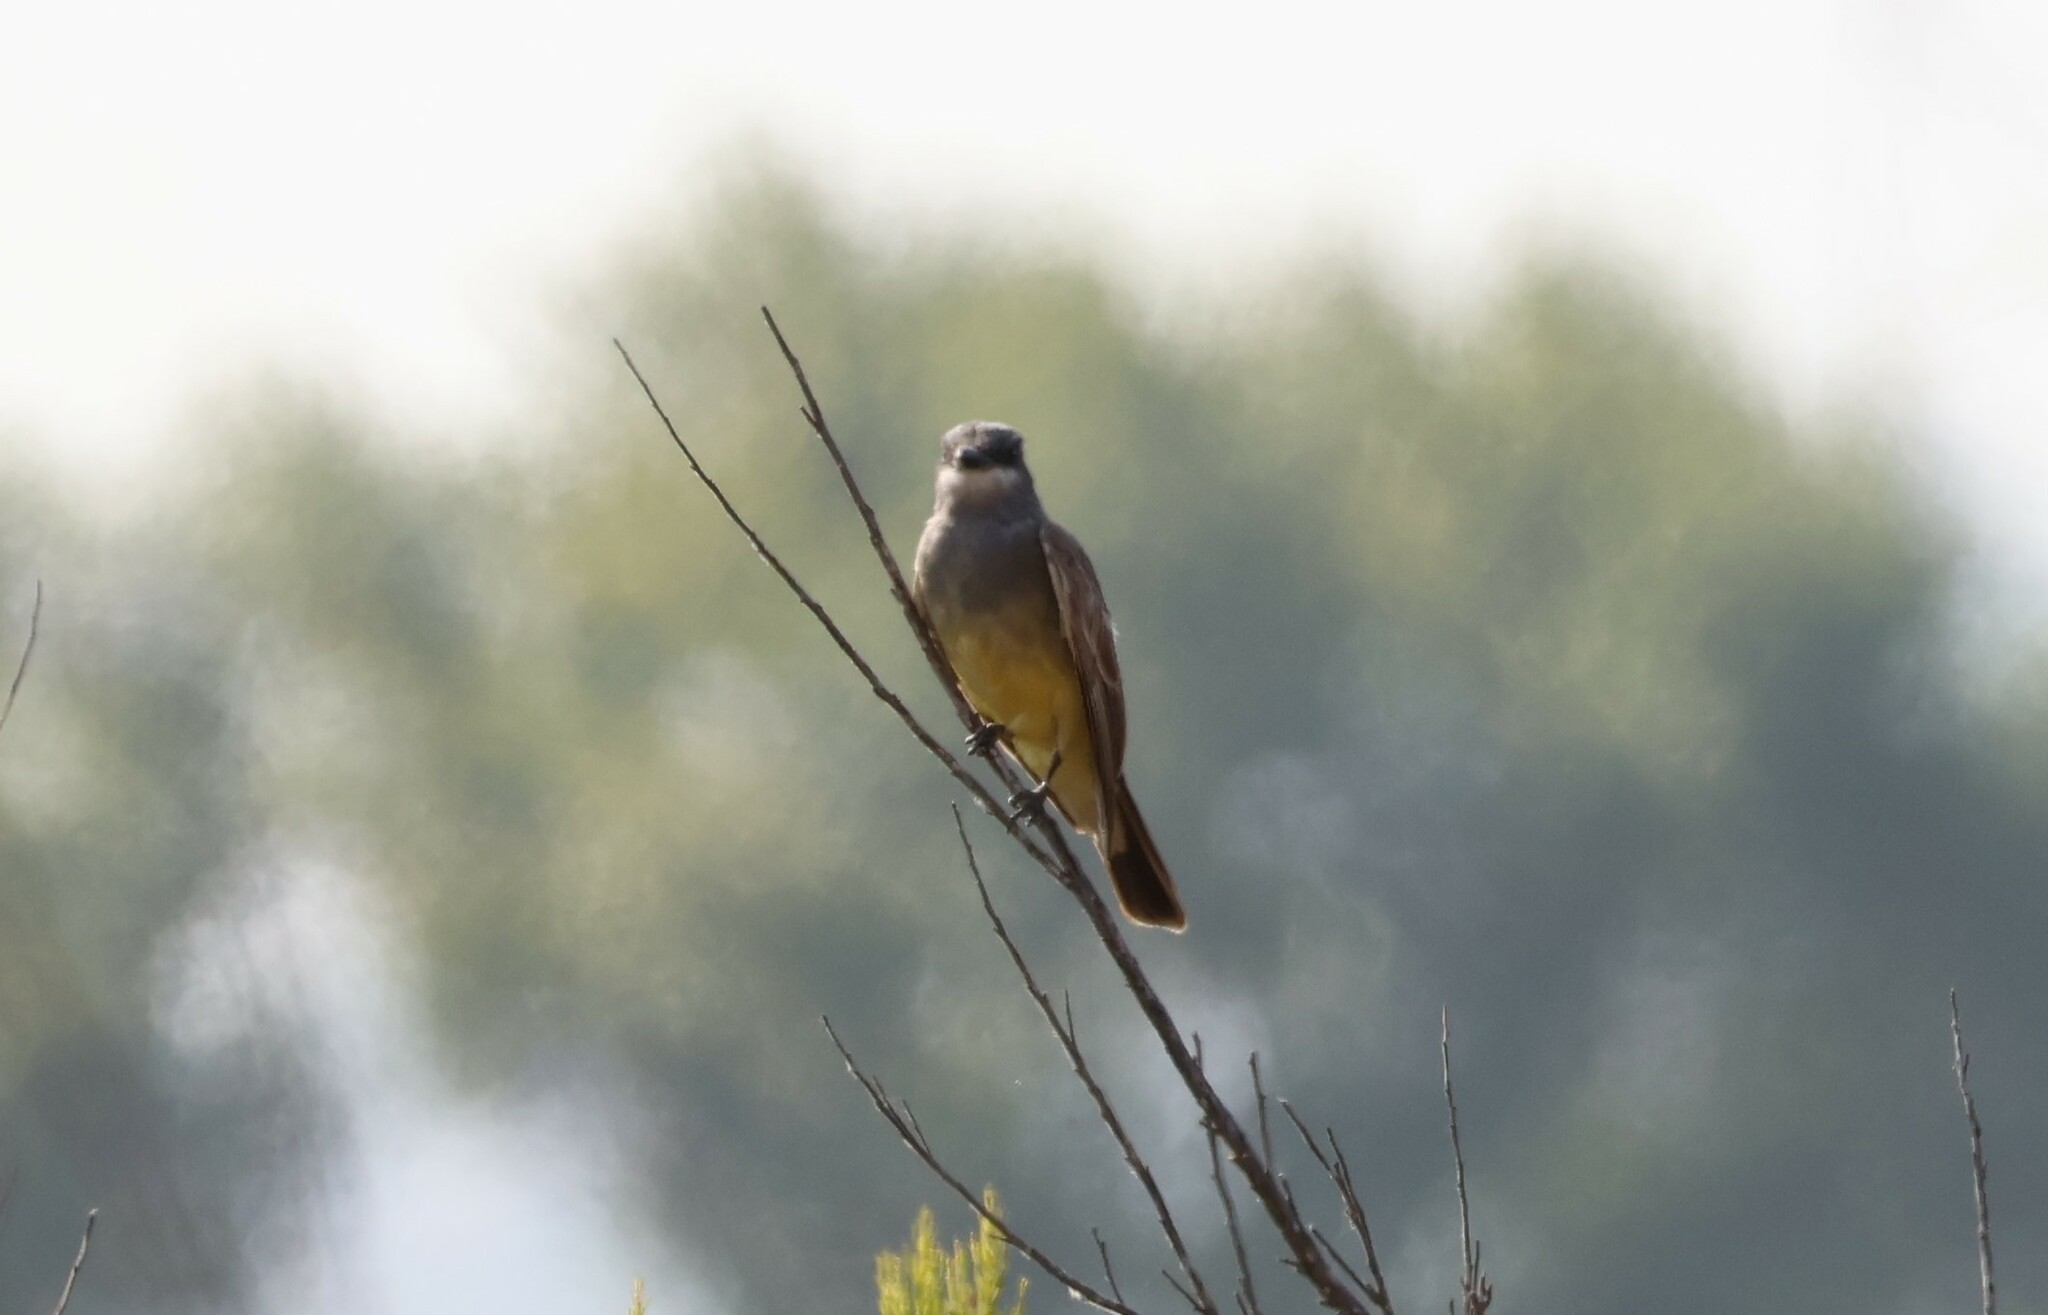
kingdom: Animalia
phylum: Chordata
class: Aves
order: Passeriformes
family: Tyrannidae
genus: Tyrannus
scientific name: Tyrannus vociferans
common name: Cassin's kingbird
